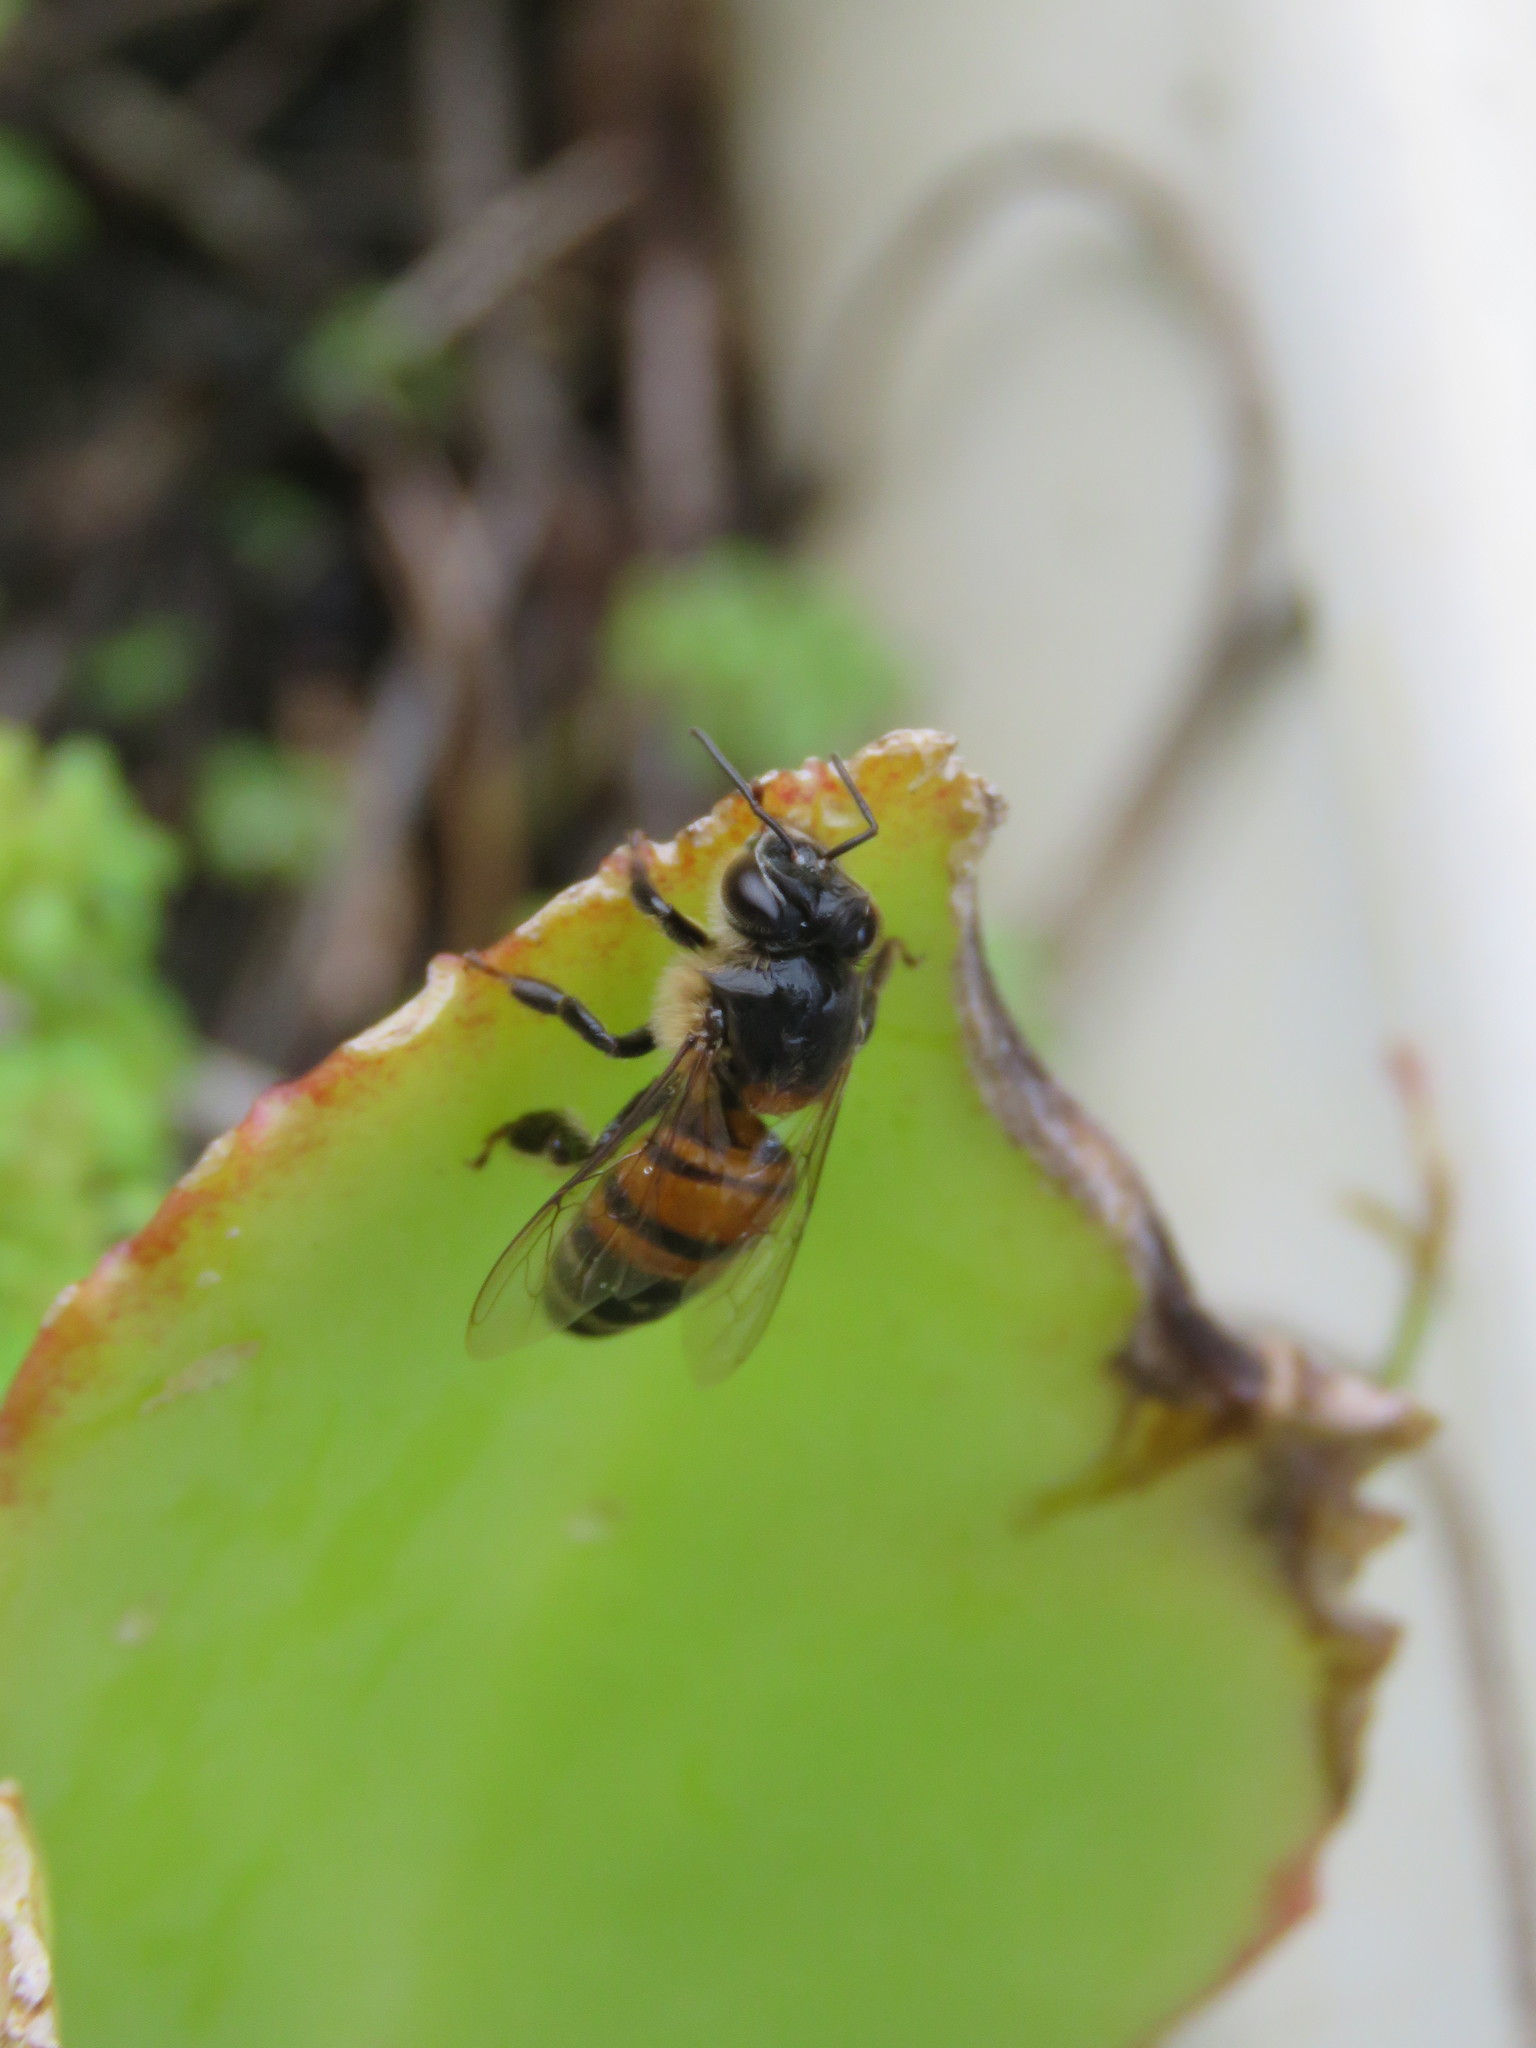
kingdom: Animalia
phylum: Arthropoda
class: Insecta
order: Hymenoptera
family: Apidae
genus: Apis
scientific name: Apis mellifera
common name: Honey bee
